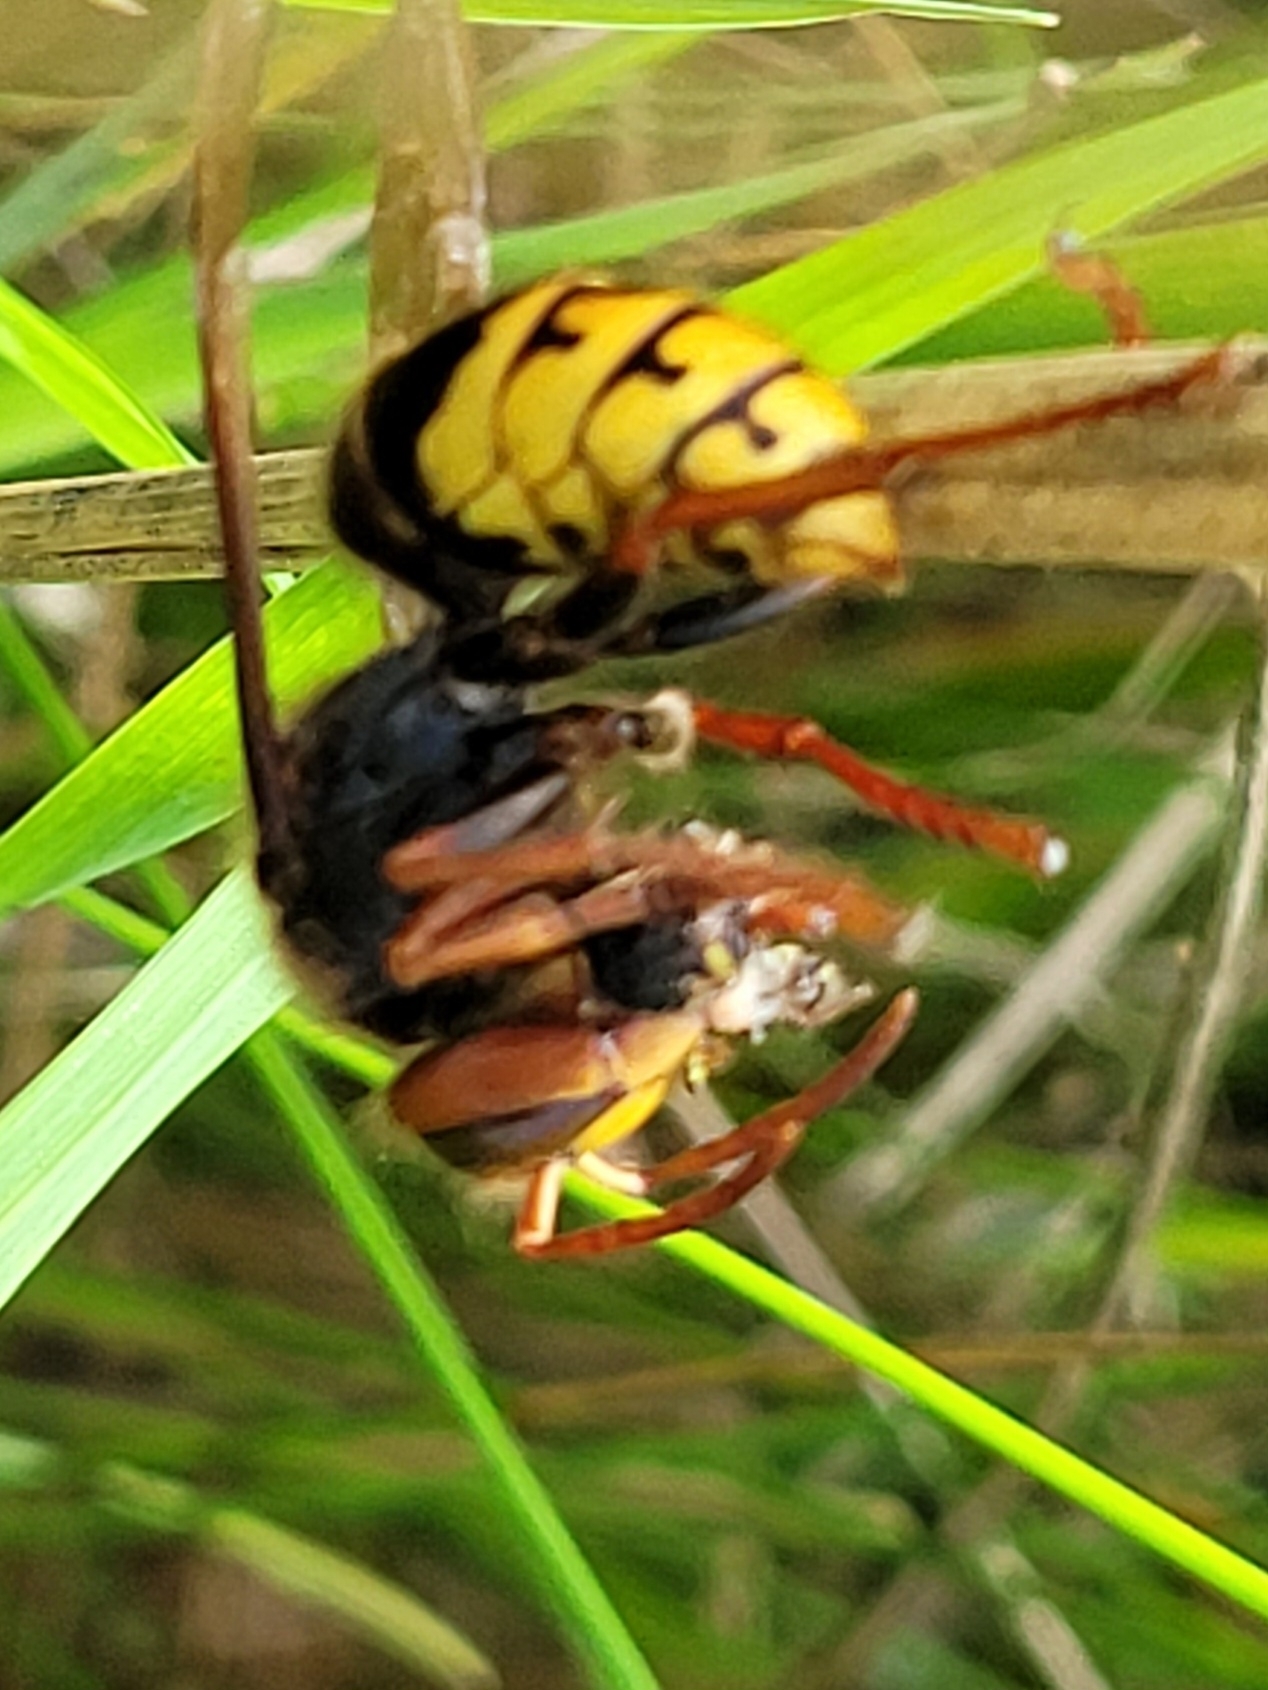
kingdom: Animalia
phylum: Arthropoda
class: Insecta
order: Hymenoptera
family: Vespidae
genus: Vespa
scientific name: Vespa crabro
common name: Hornet
